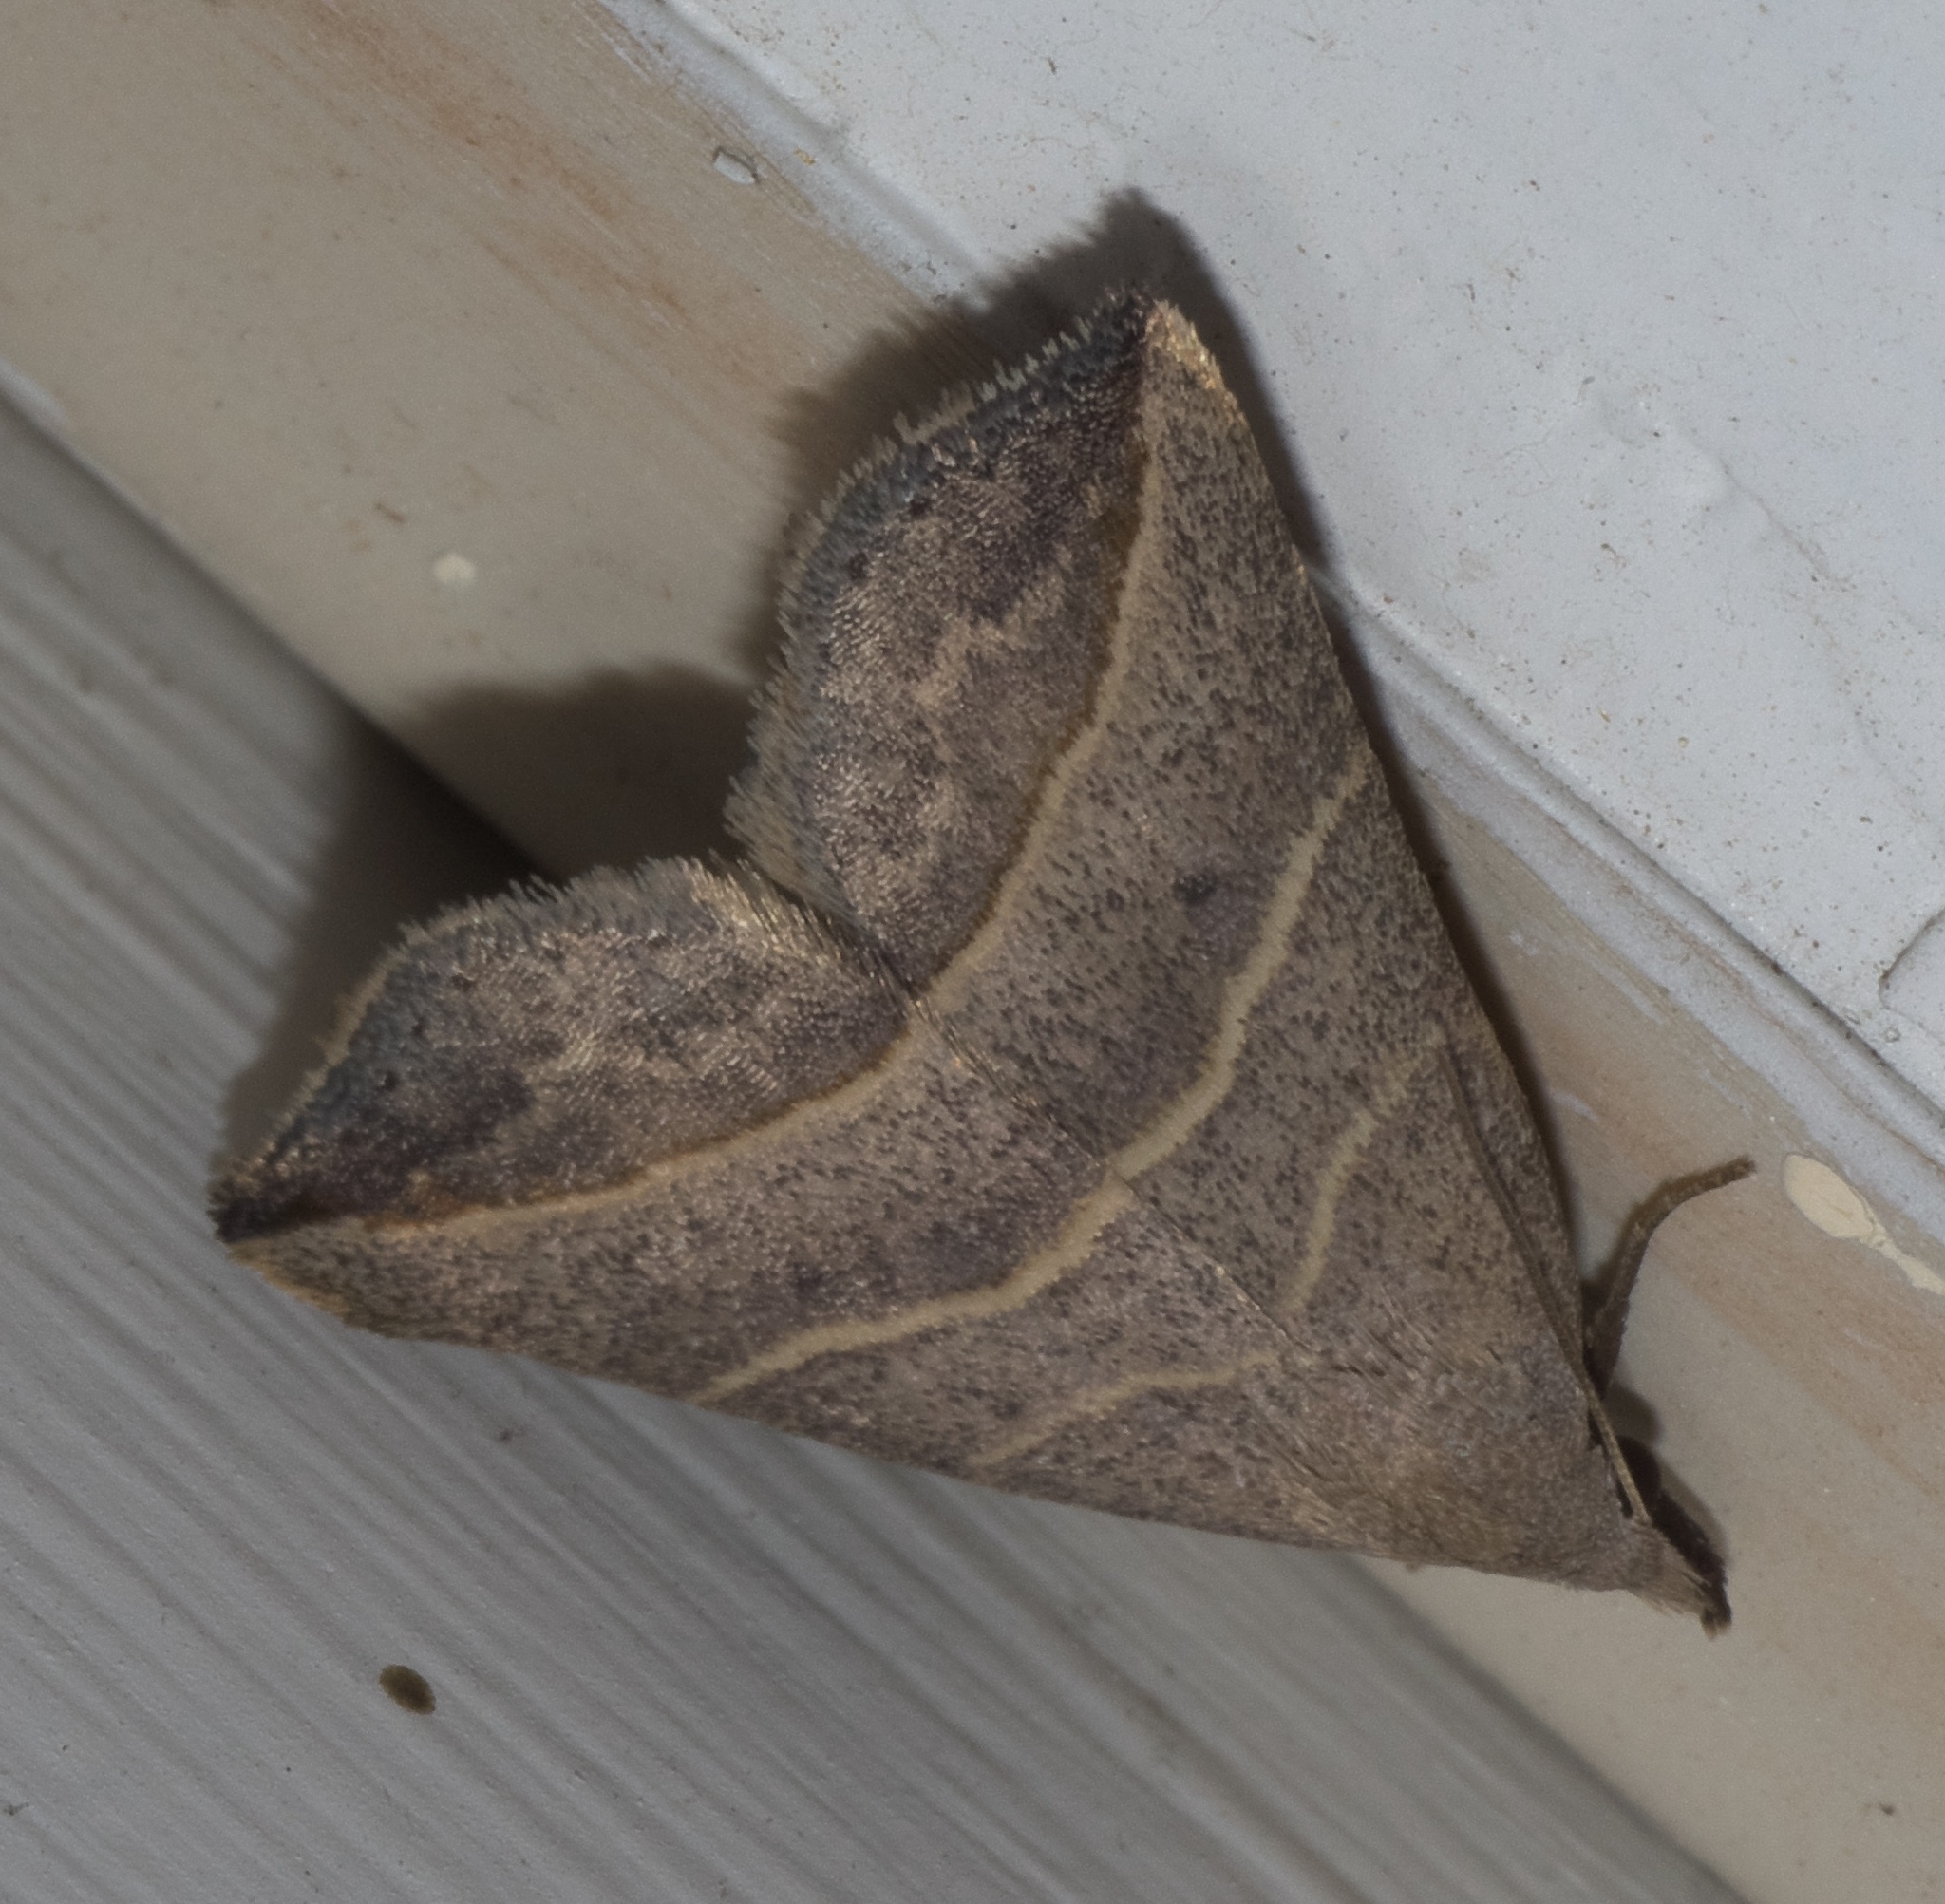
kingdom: Animalia
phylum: Arthropoda
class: Insecta
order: Lepidoptera
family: Erebidae
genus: Colobochyla
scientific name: Colobochyla interpuncta
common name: Yellow-lined owlet
